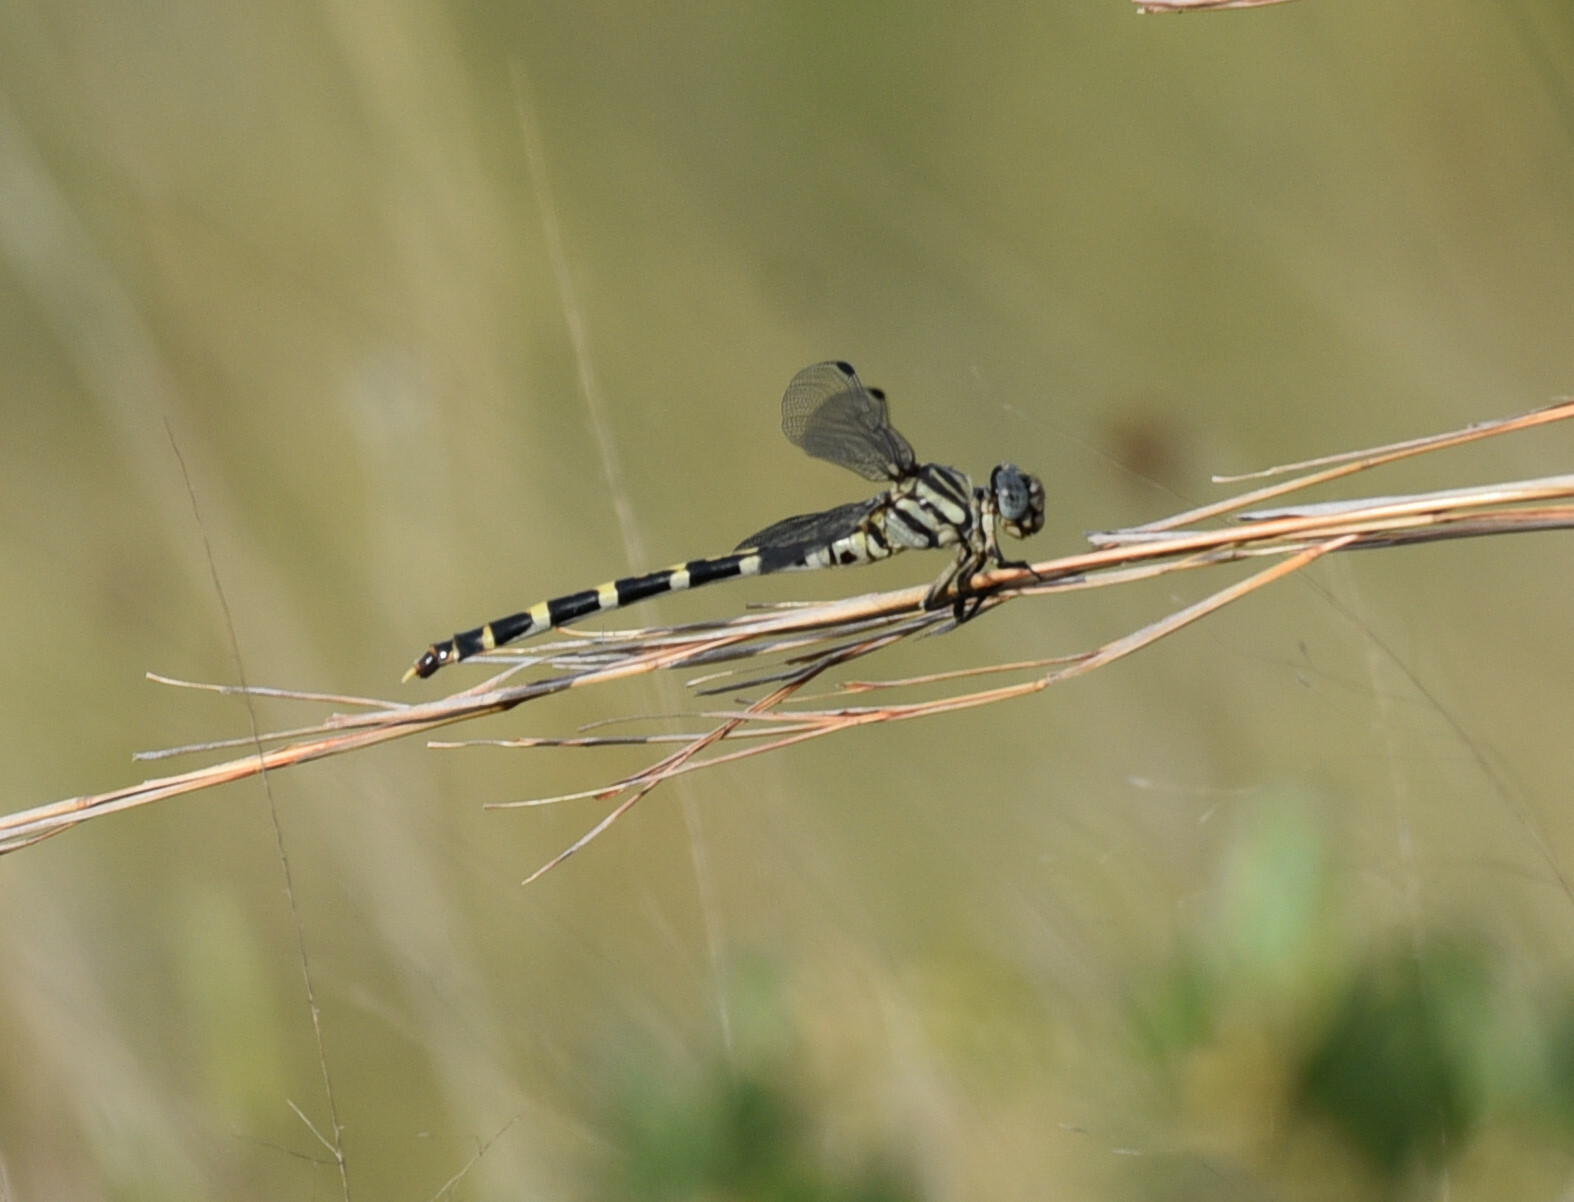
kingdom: Animalia
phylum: Arthropoda
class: Insecta
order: Odonata
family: Gomphidae
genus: Phyllogomphoides
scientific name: Phyllogomphoides stigmatus
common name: Four-striped leaftail
